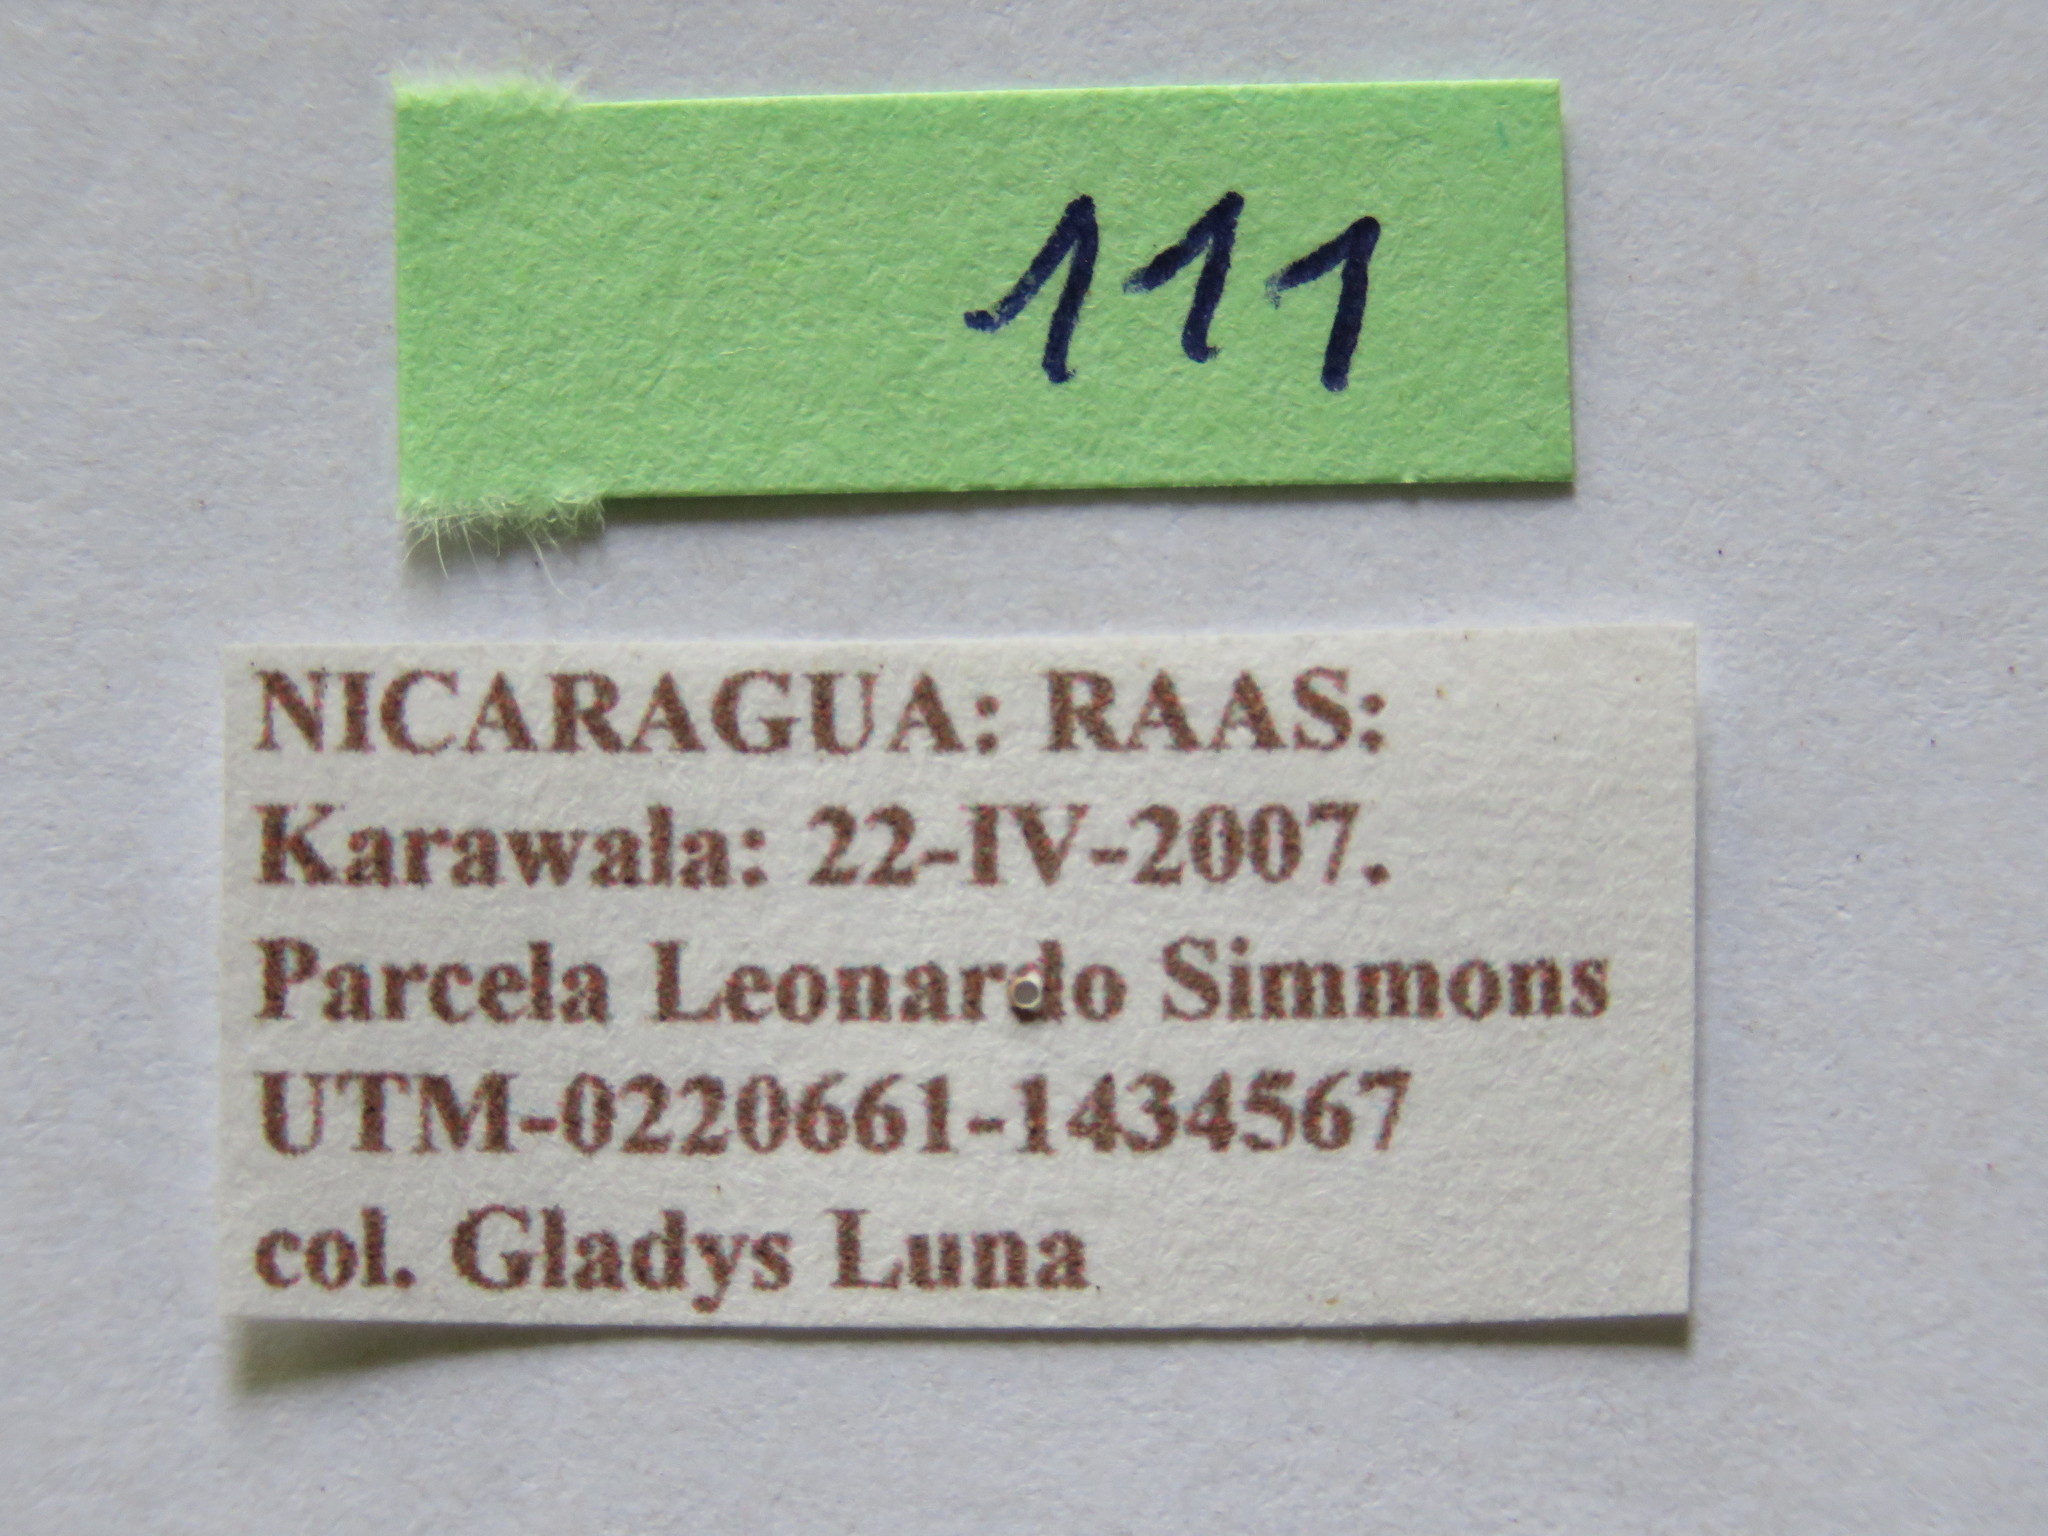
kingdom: Animalia
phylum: Arthropoda
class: Insecta
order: Hemiptera
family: Coreidae
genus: Sephina
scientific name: Sephina vinula
